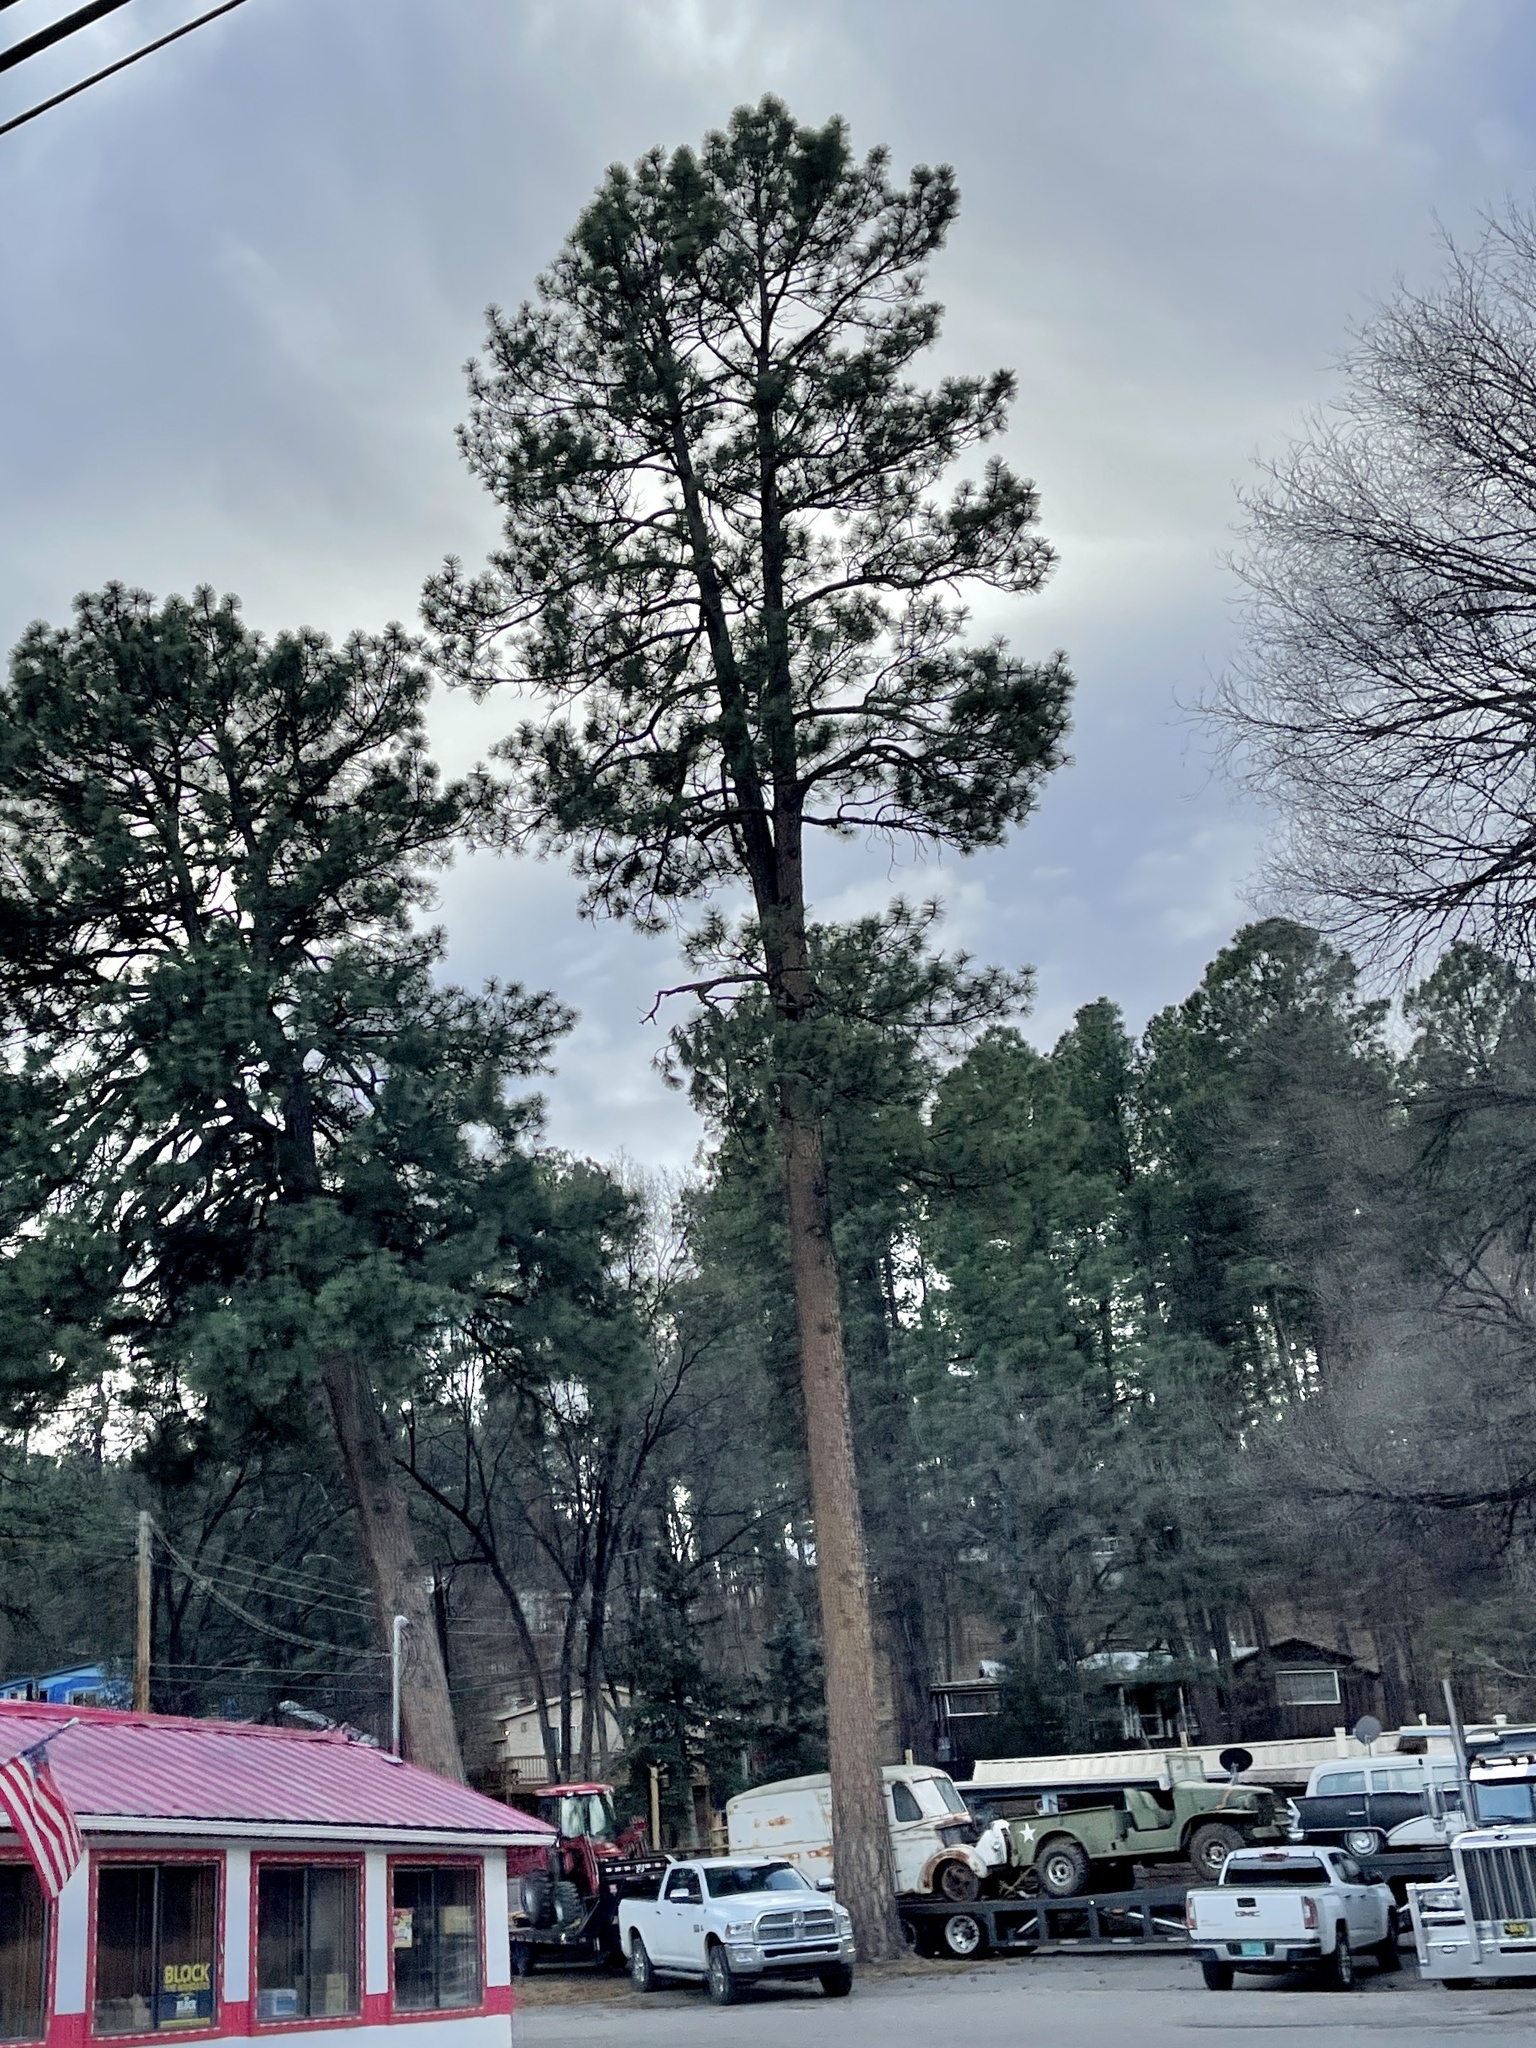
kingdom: Plantae
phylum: Tracheophyta
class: Pinopsida
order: Pinales
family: Pinaceae
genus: Pinus
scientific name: Pinus ponderosa
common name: Western yellow-pine
